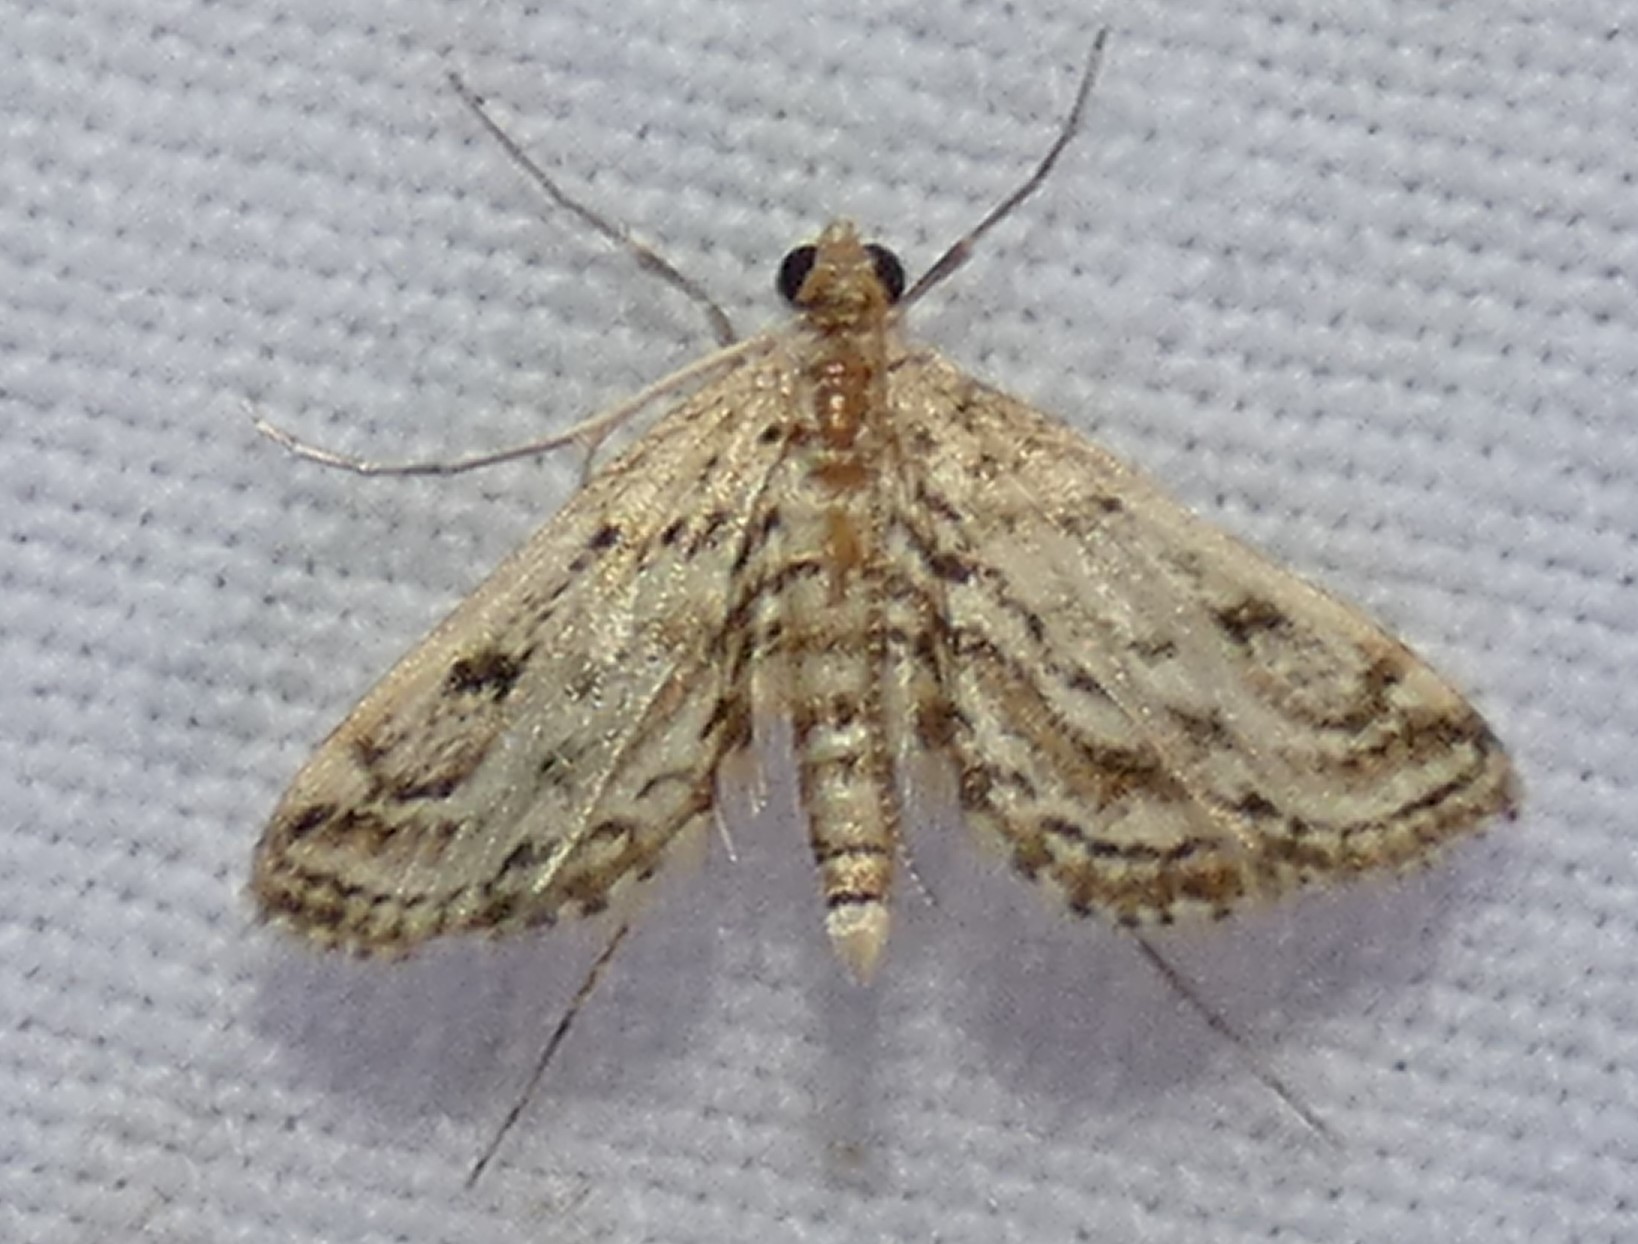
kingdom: Animalia
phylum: Arthropoda
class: Insecta
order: Lepidoptera
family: Crambidae
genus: Parapoynx
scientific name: Parapoynx allionealis
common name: Bladderwort casemaker
